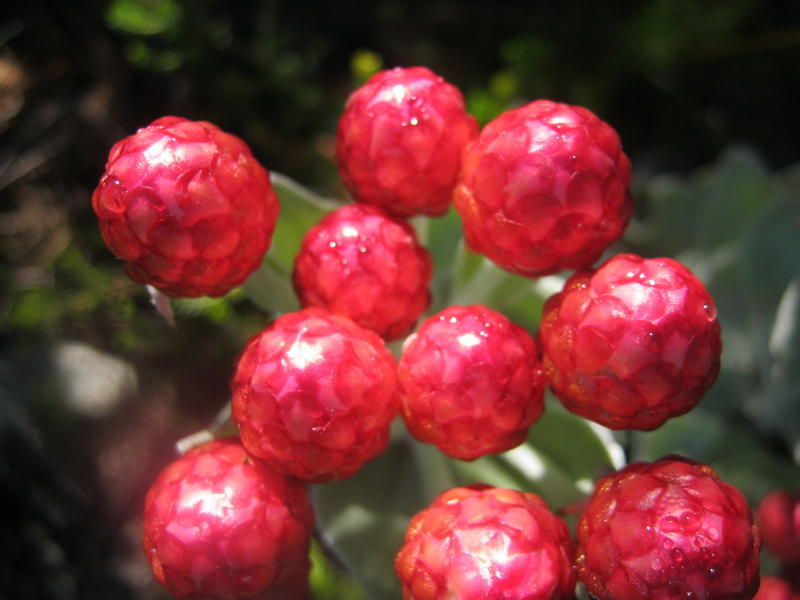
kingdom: Plantae
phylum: Tracheophyta
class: Magnoliopsida
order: Asterales
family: Asteraceae
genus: Syncarpha
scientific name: Syncarpha eximia
